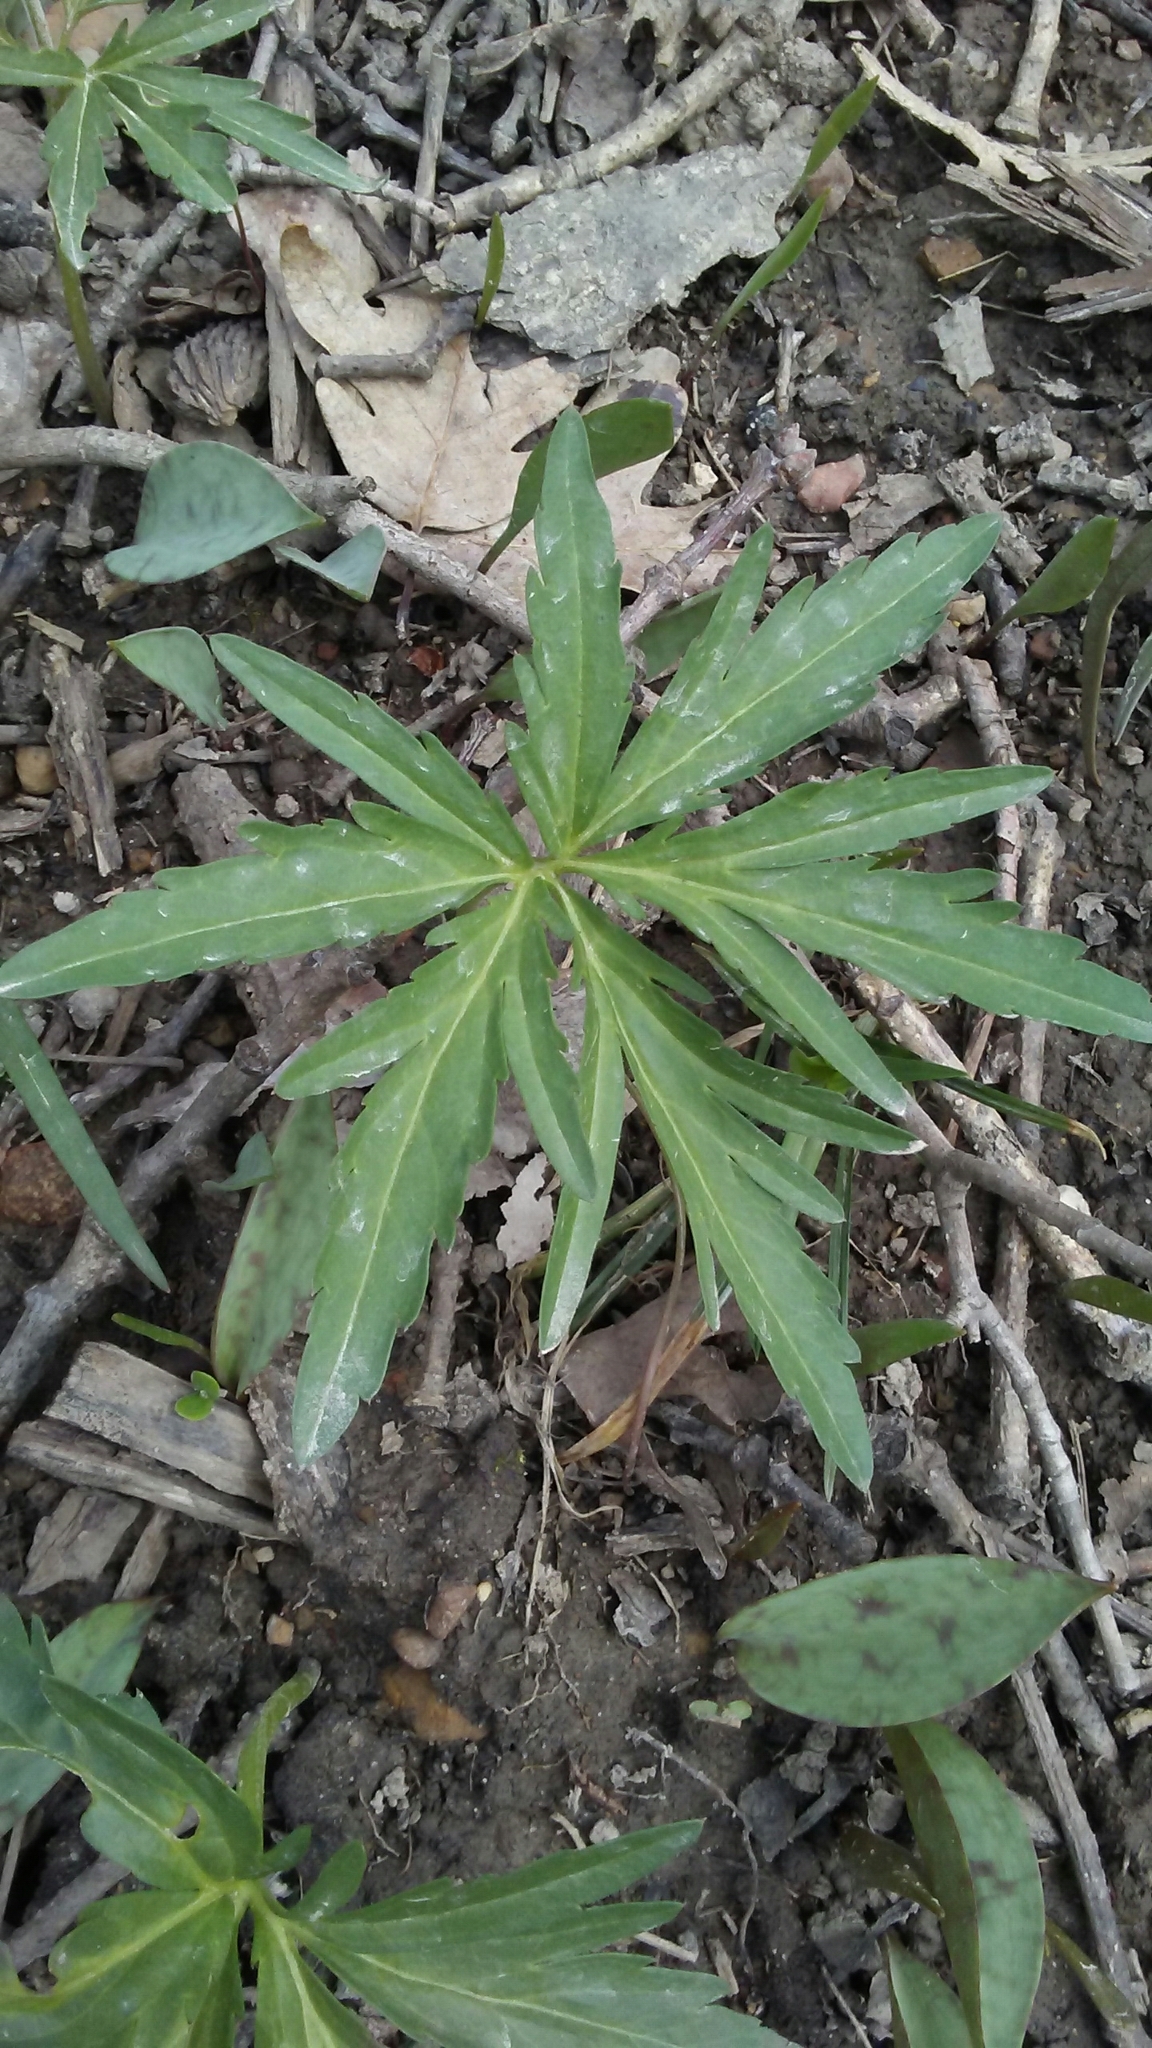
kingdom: Plantae
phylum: Tracheophyta
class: Magnoliopsida
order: Brassicales
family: Brassicaceae
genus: Cardamine
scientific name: Cardamine concatenata
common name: Cut-leaf toothcup
